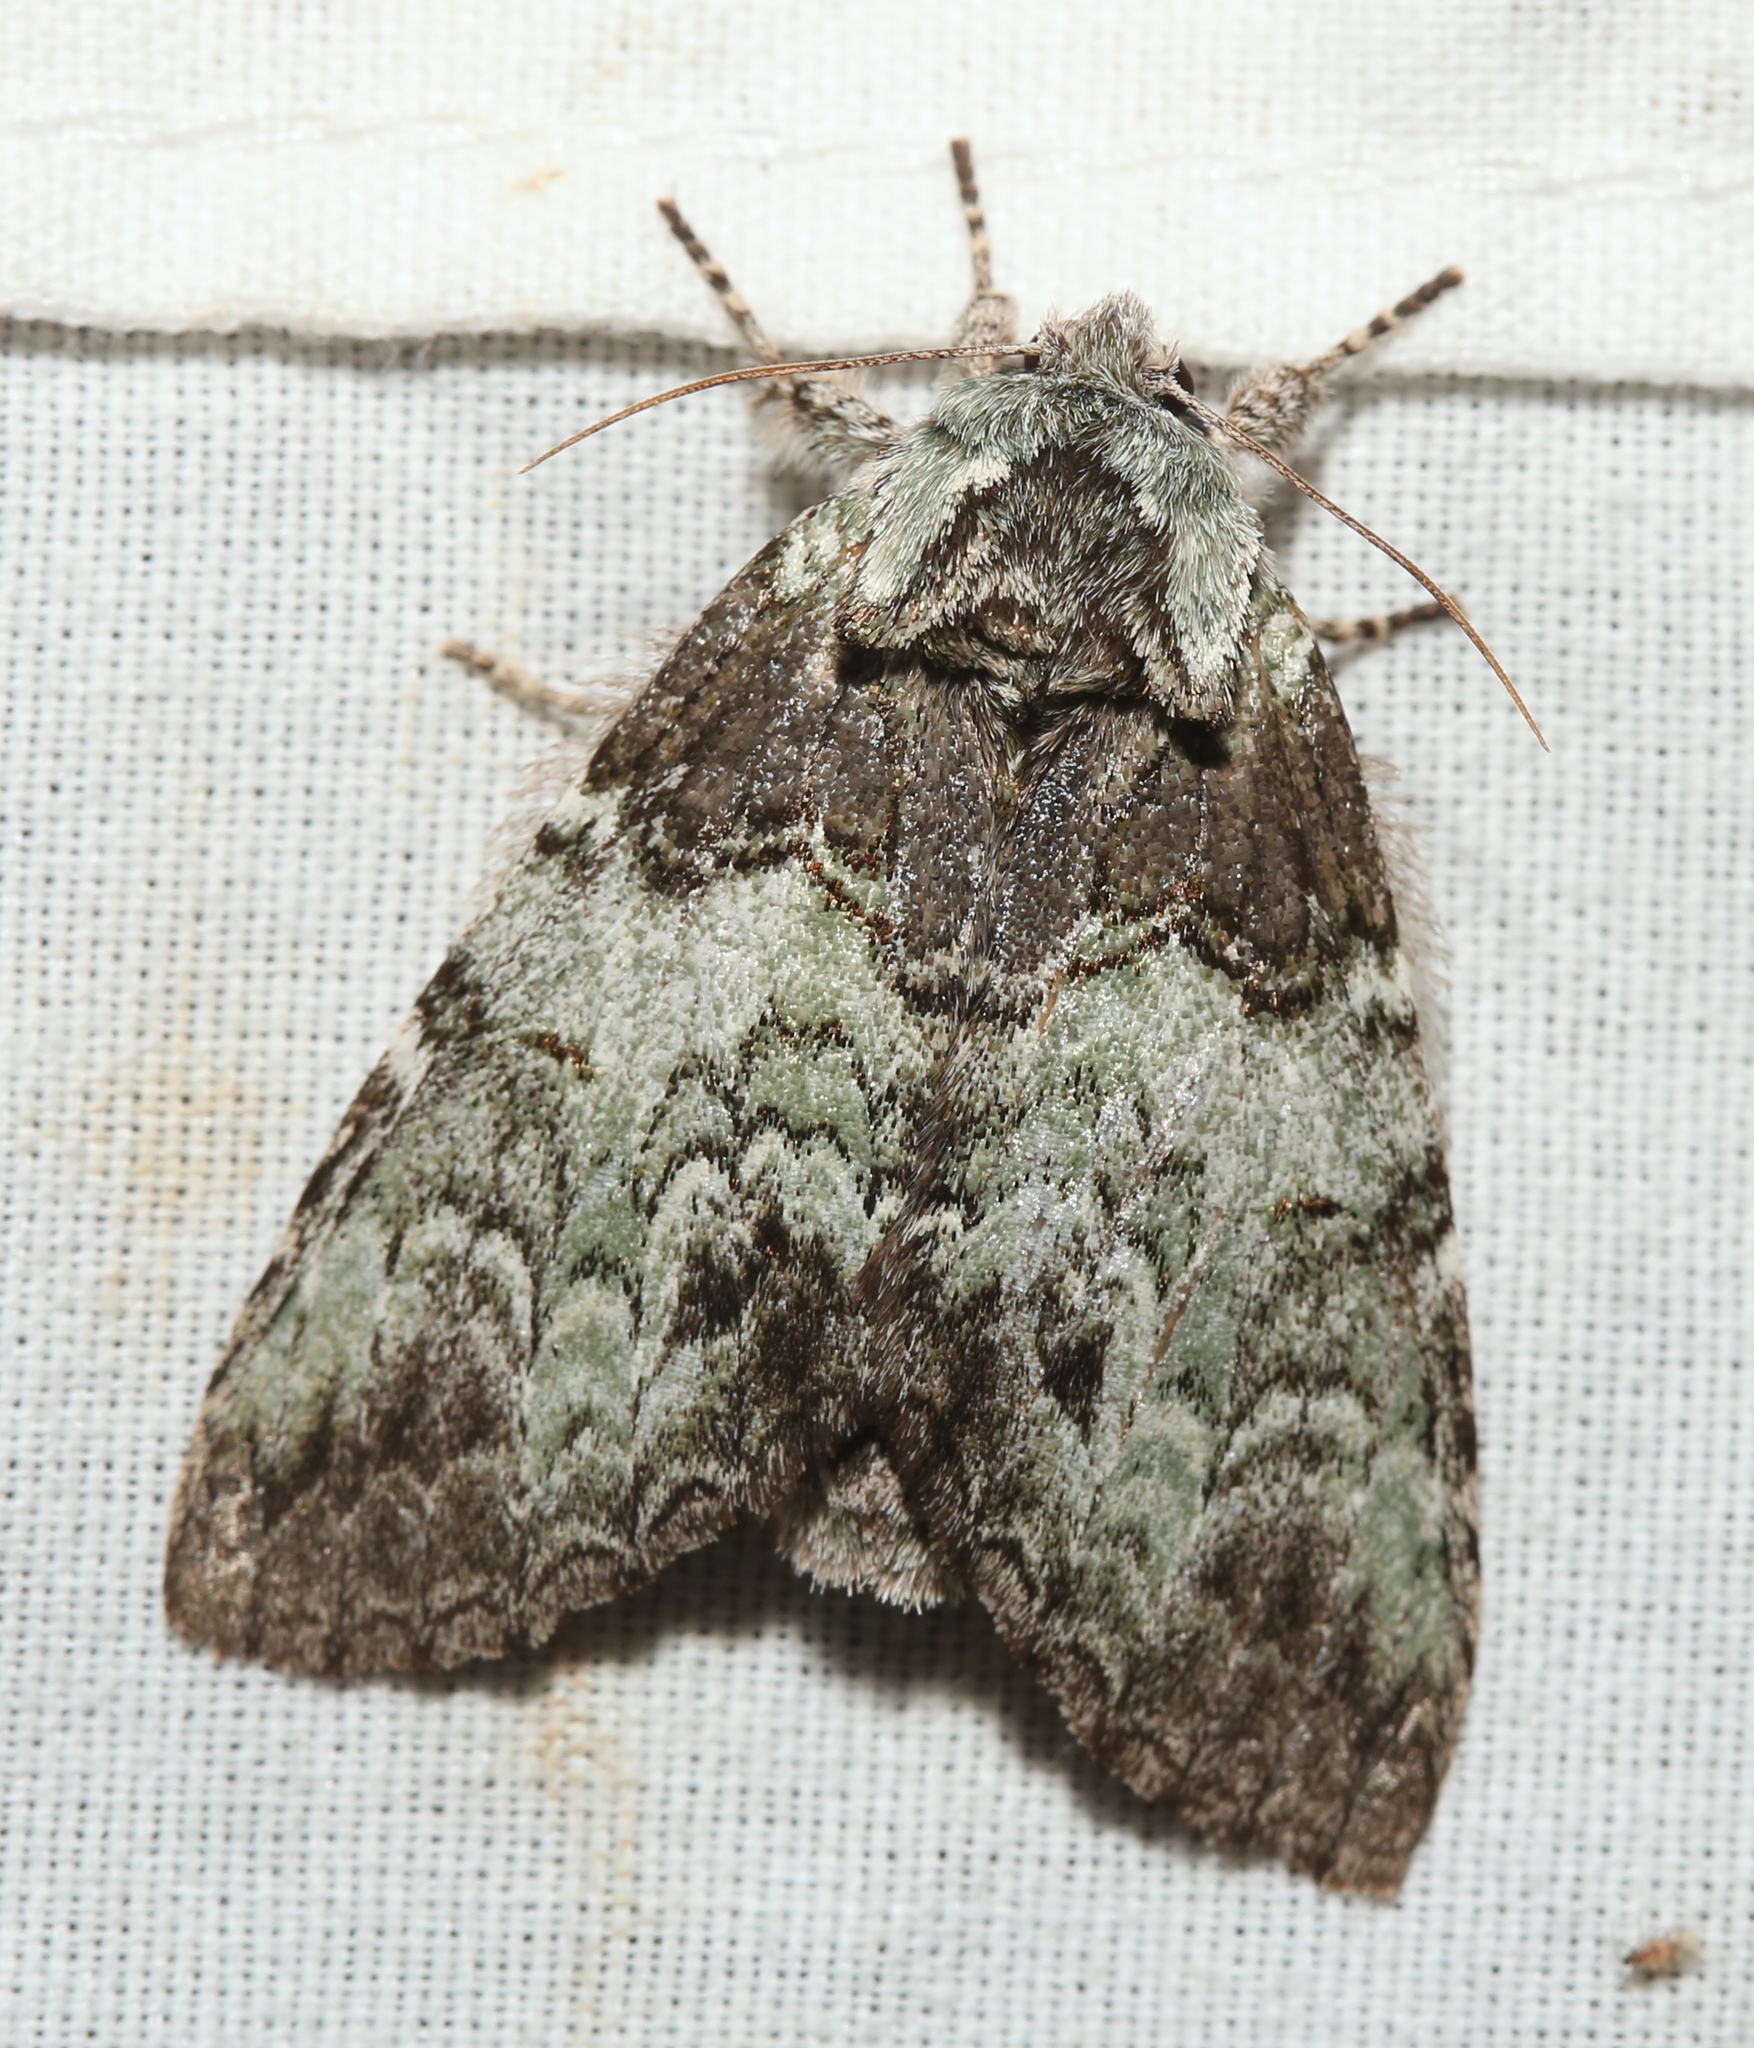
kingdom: Animalia
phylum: Arthropoda
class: Insecta
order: Lepidoptera
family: Notodontidae
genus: Macrurocampa
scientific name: Macrurocampa marthesia
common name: Mottled prominent
